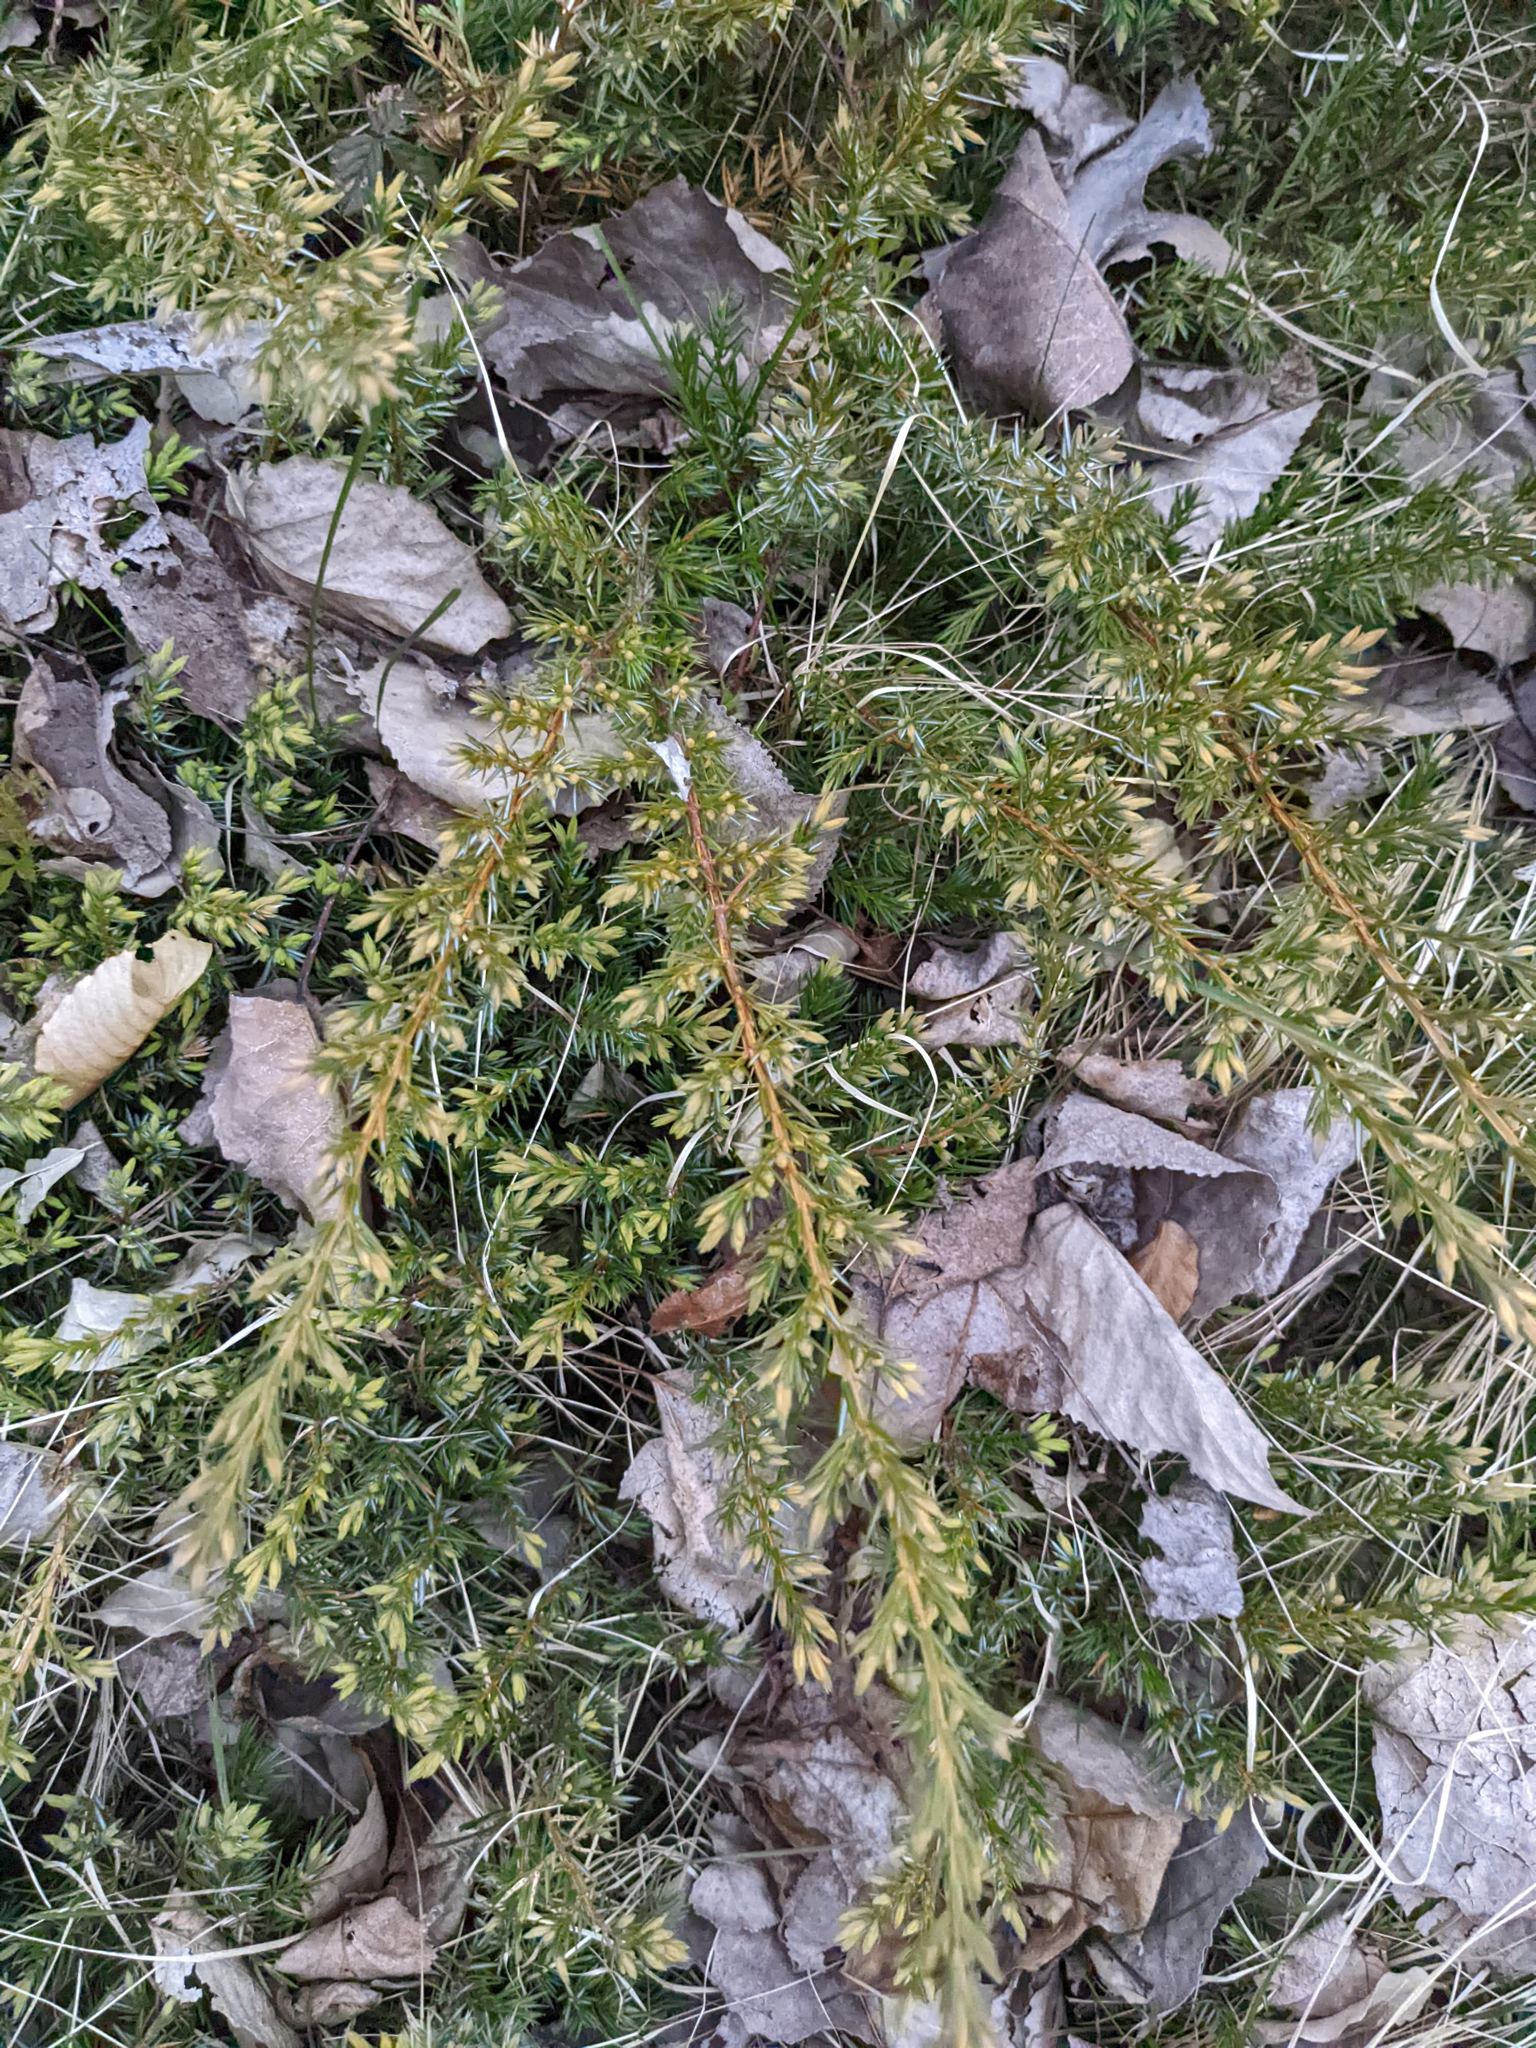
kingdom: Plantae
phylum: Tracheophyta
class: Pinopsida
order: Pinales
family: Cupressaceae
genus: Juniperus
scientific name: Juniperus communis
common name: Common juniper
